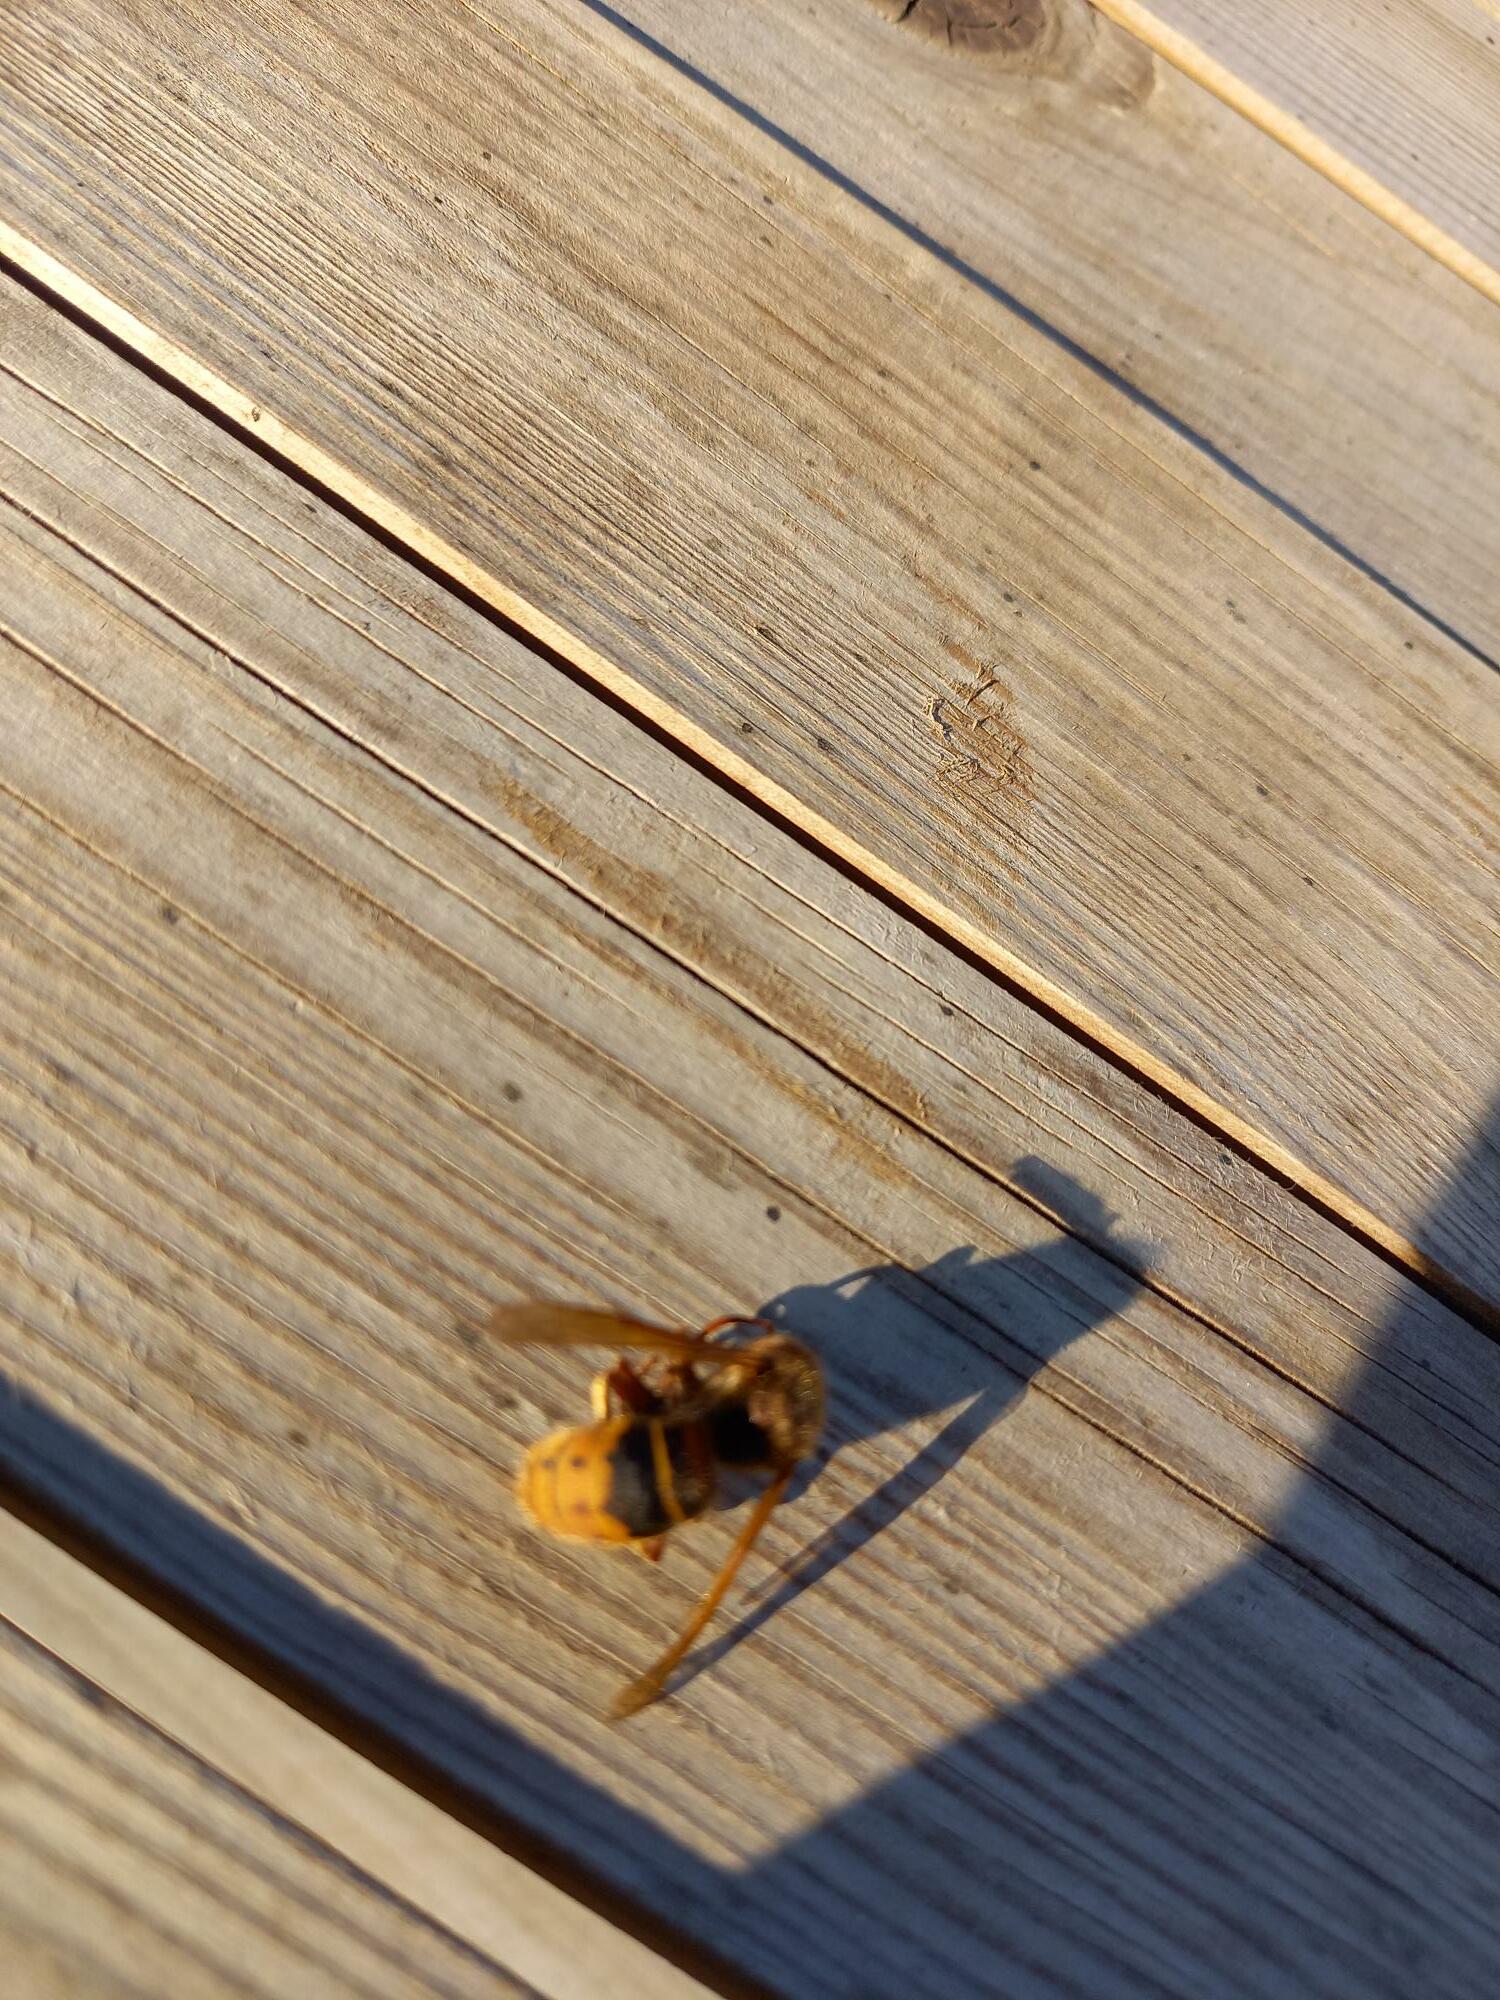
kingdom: Animalia
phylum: Arthropoda
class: Insecta
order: Hymenoptera
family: Vespidae
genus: Vespa
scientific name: Vespa crabro
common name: Hornet
